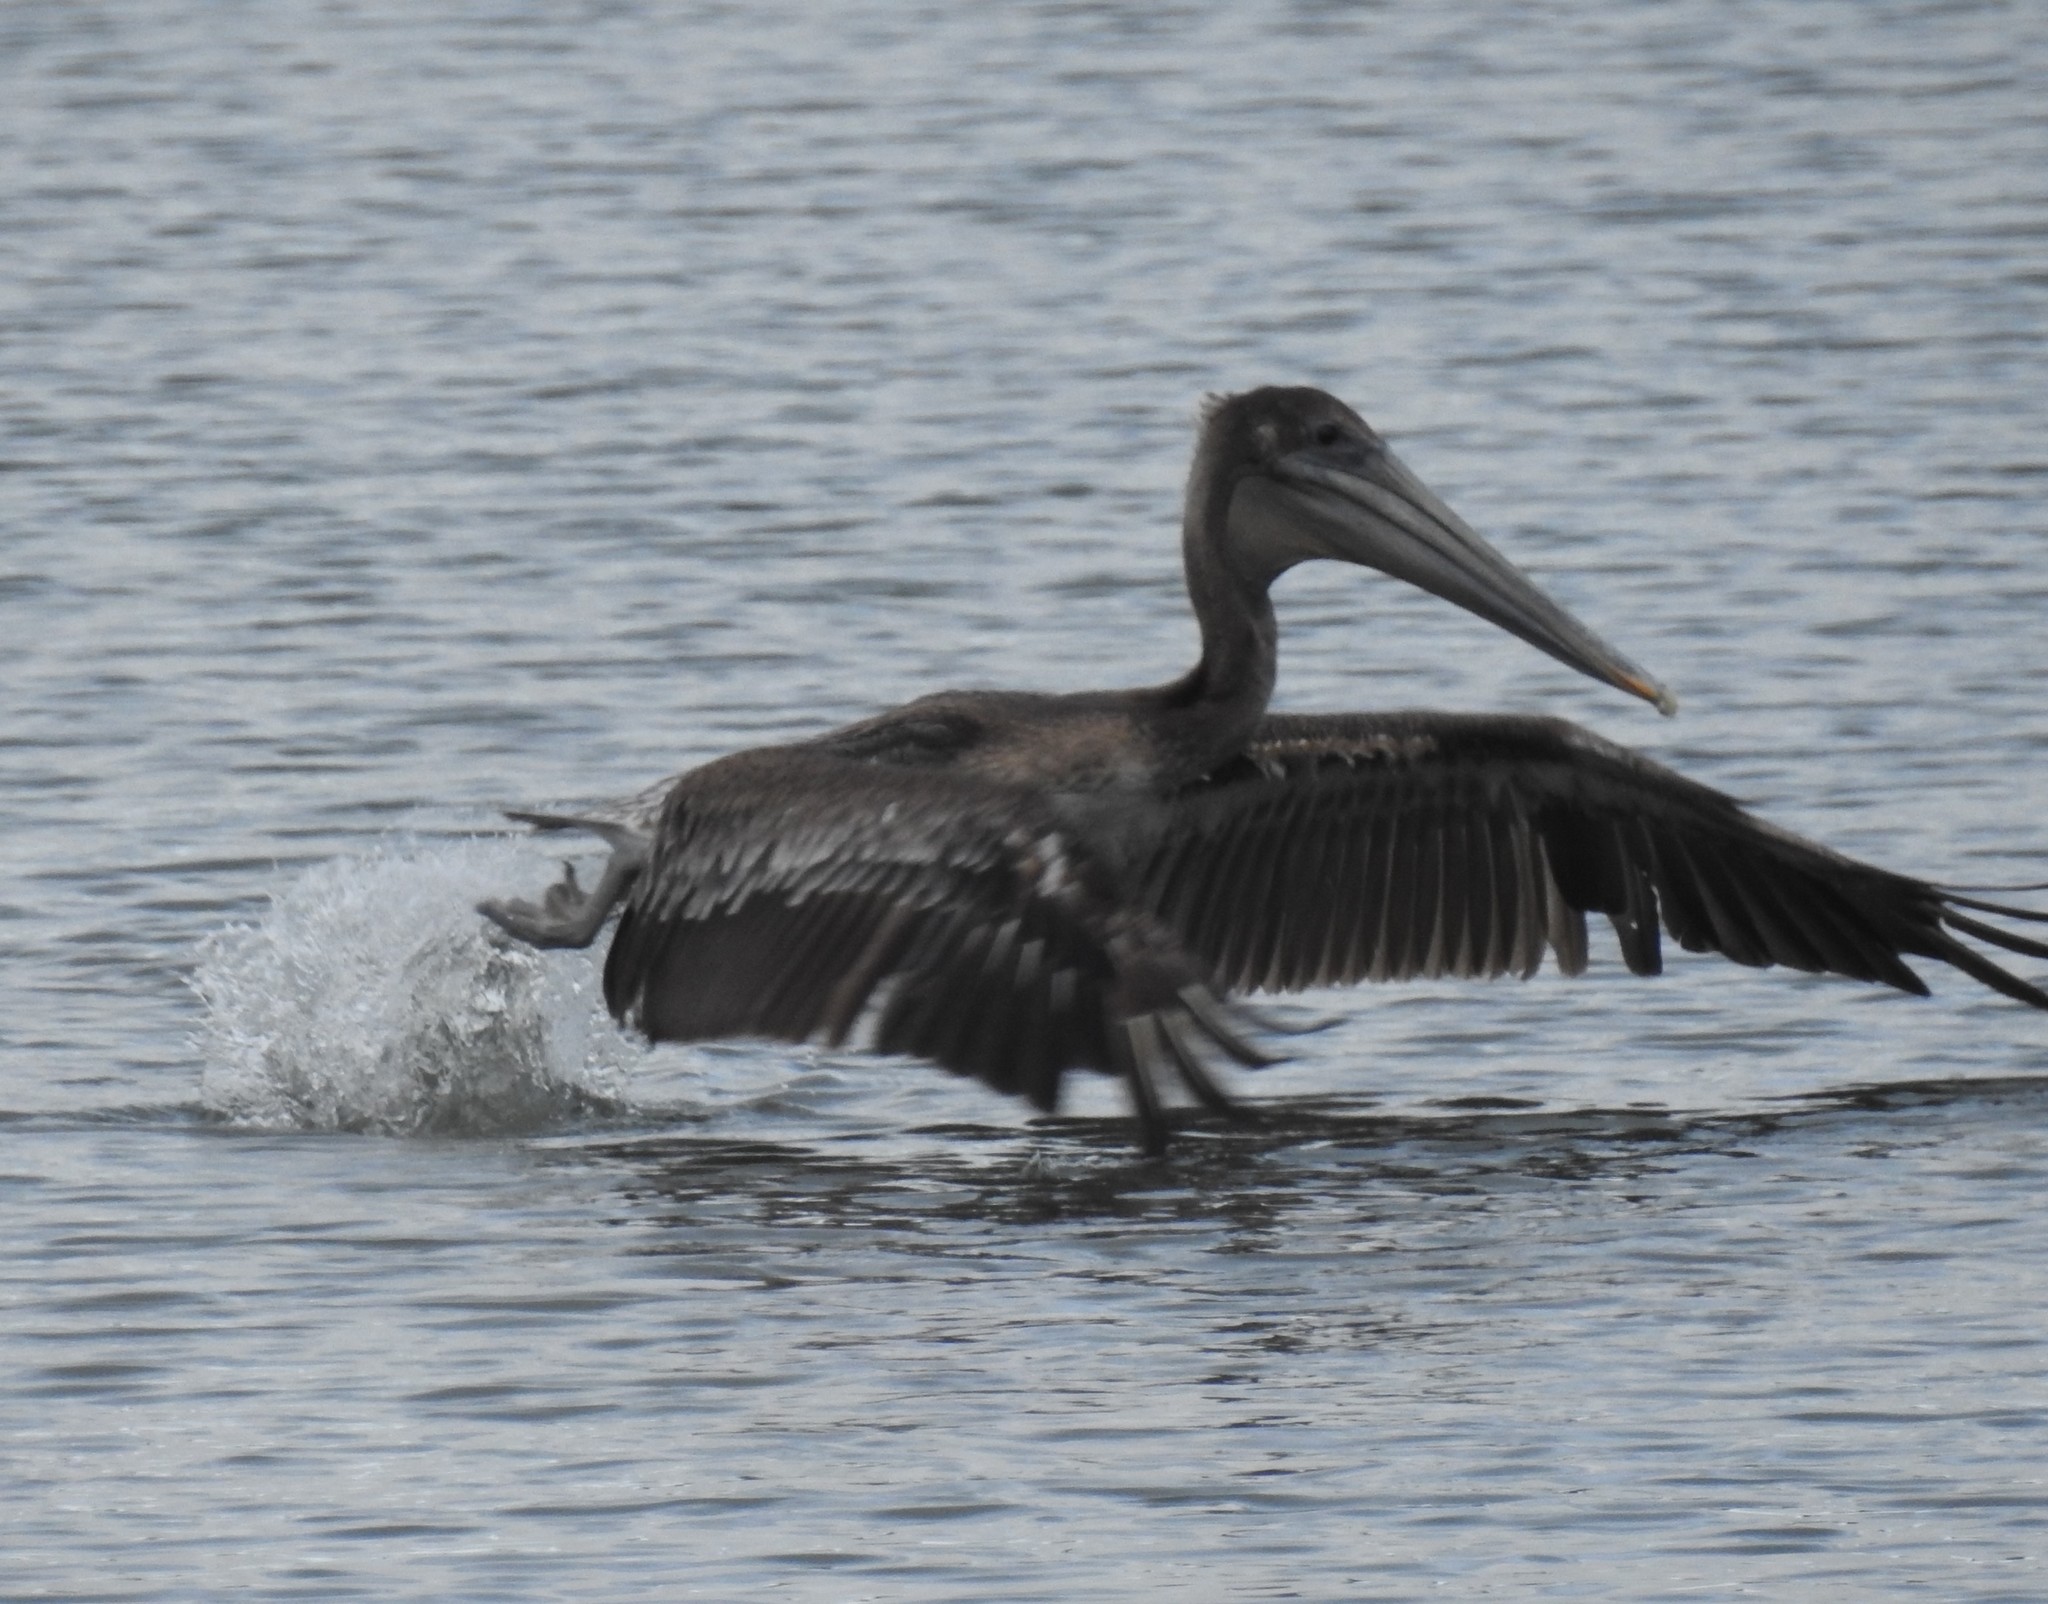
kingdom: Animalia
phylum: Chordata
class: Aves
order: Pelecaniformes
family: Pelecanidae
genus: Pelecanus
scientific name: Pelecanus occidentalis
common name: Brown pelican
